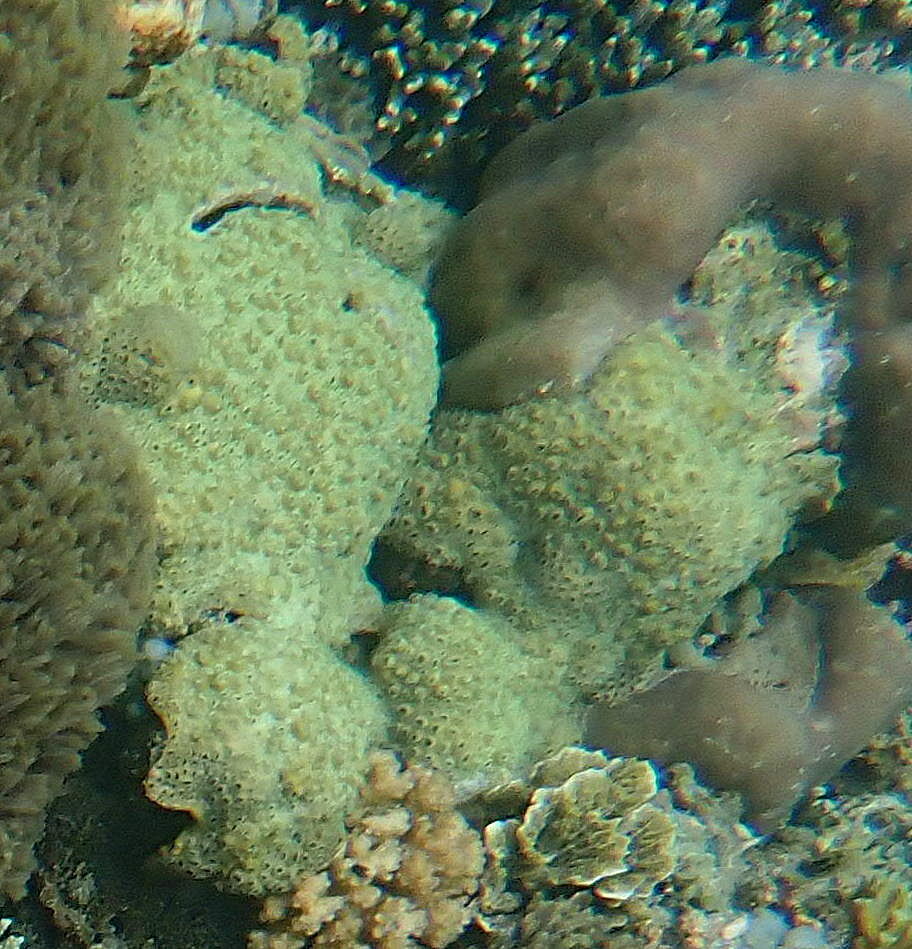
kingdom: Animalia
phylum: Cnidaria
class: Anthozoa
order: Zoantharia
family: Sphenopidae
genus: Palythoa
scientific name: Palythoa tuberculosa
